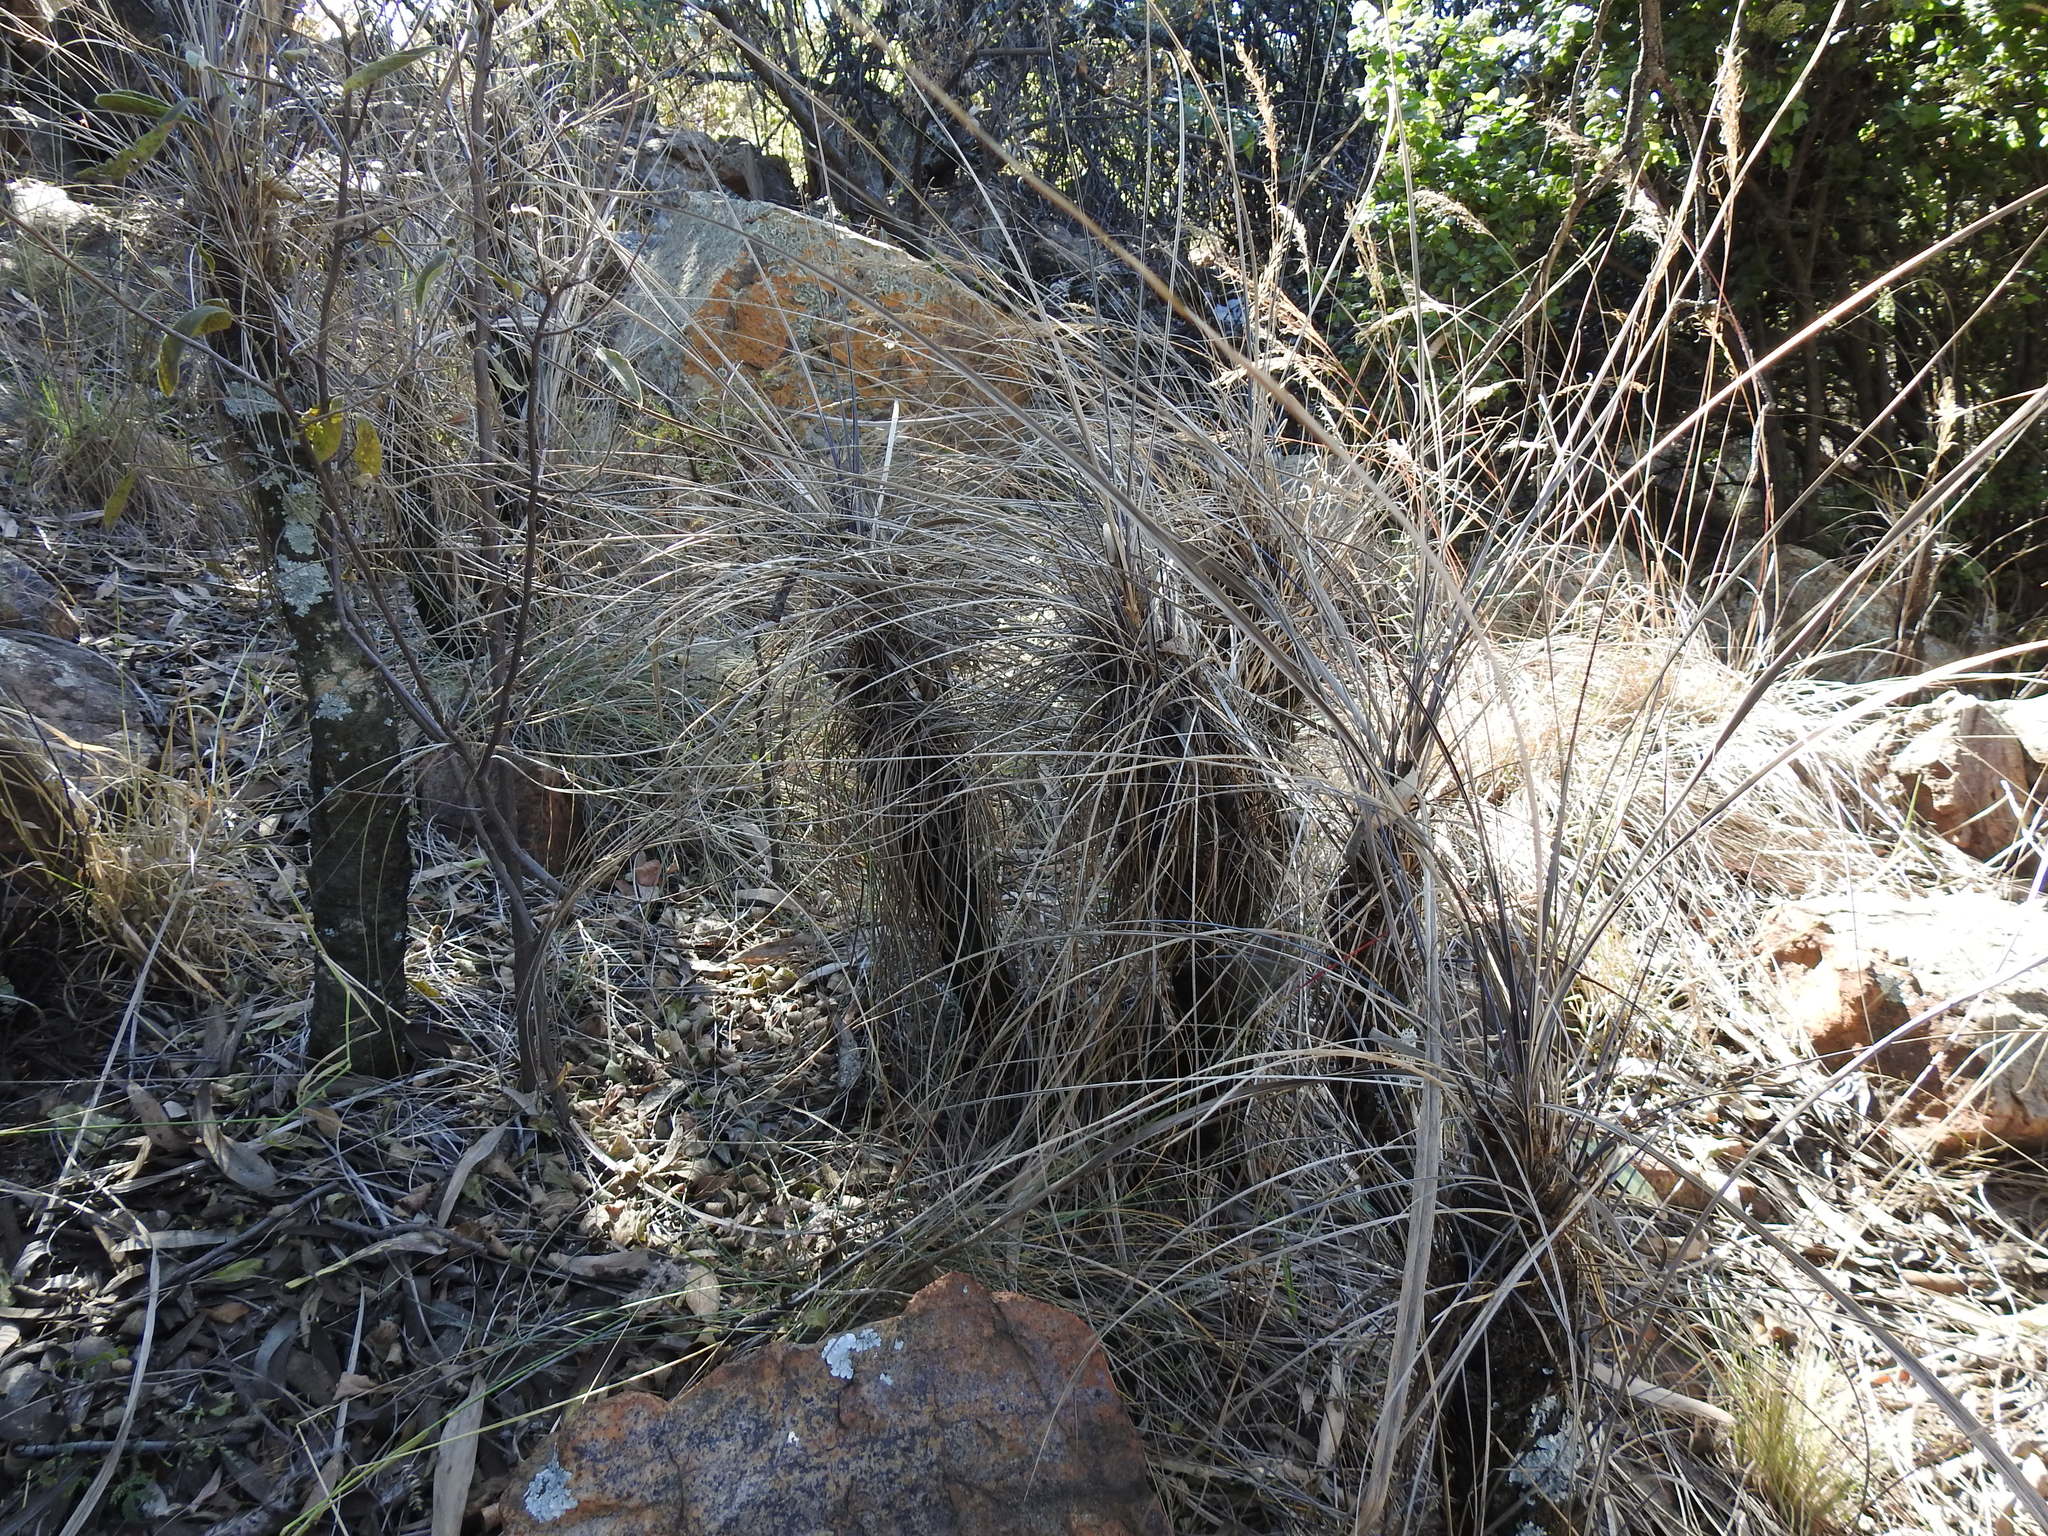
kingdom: Plantae
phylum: Tracheophyta
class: Liliopsida
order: Pandanales
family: Velloziaceae
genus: Xerophyta
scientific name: Xerophyta retinervis
